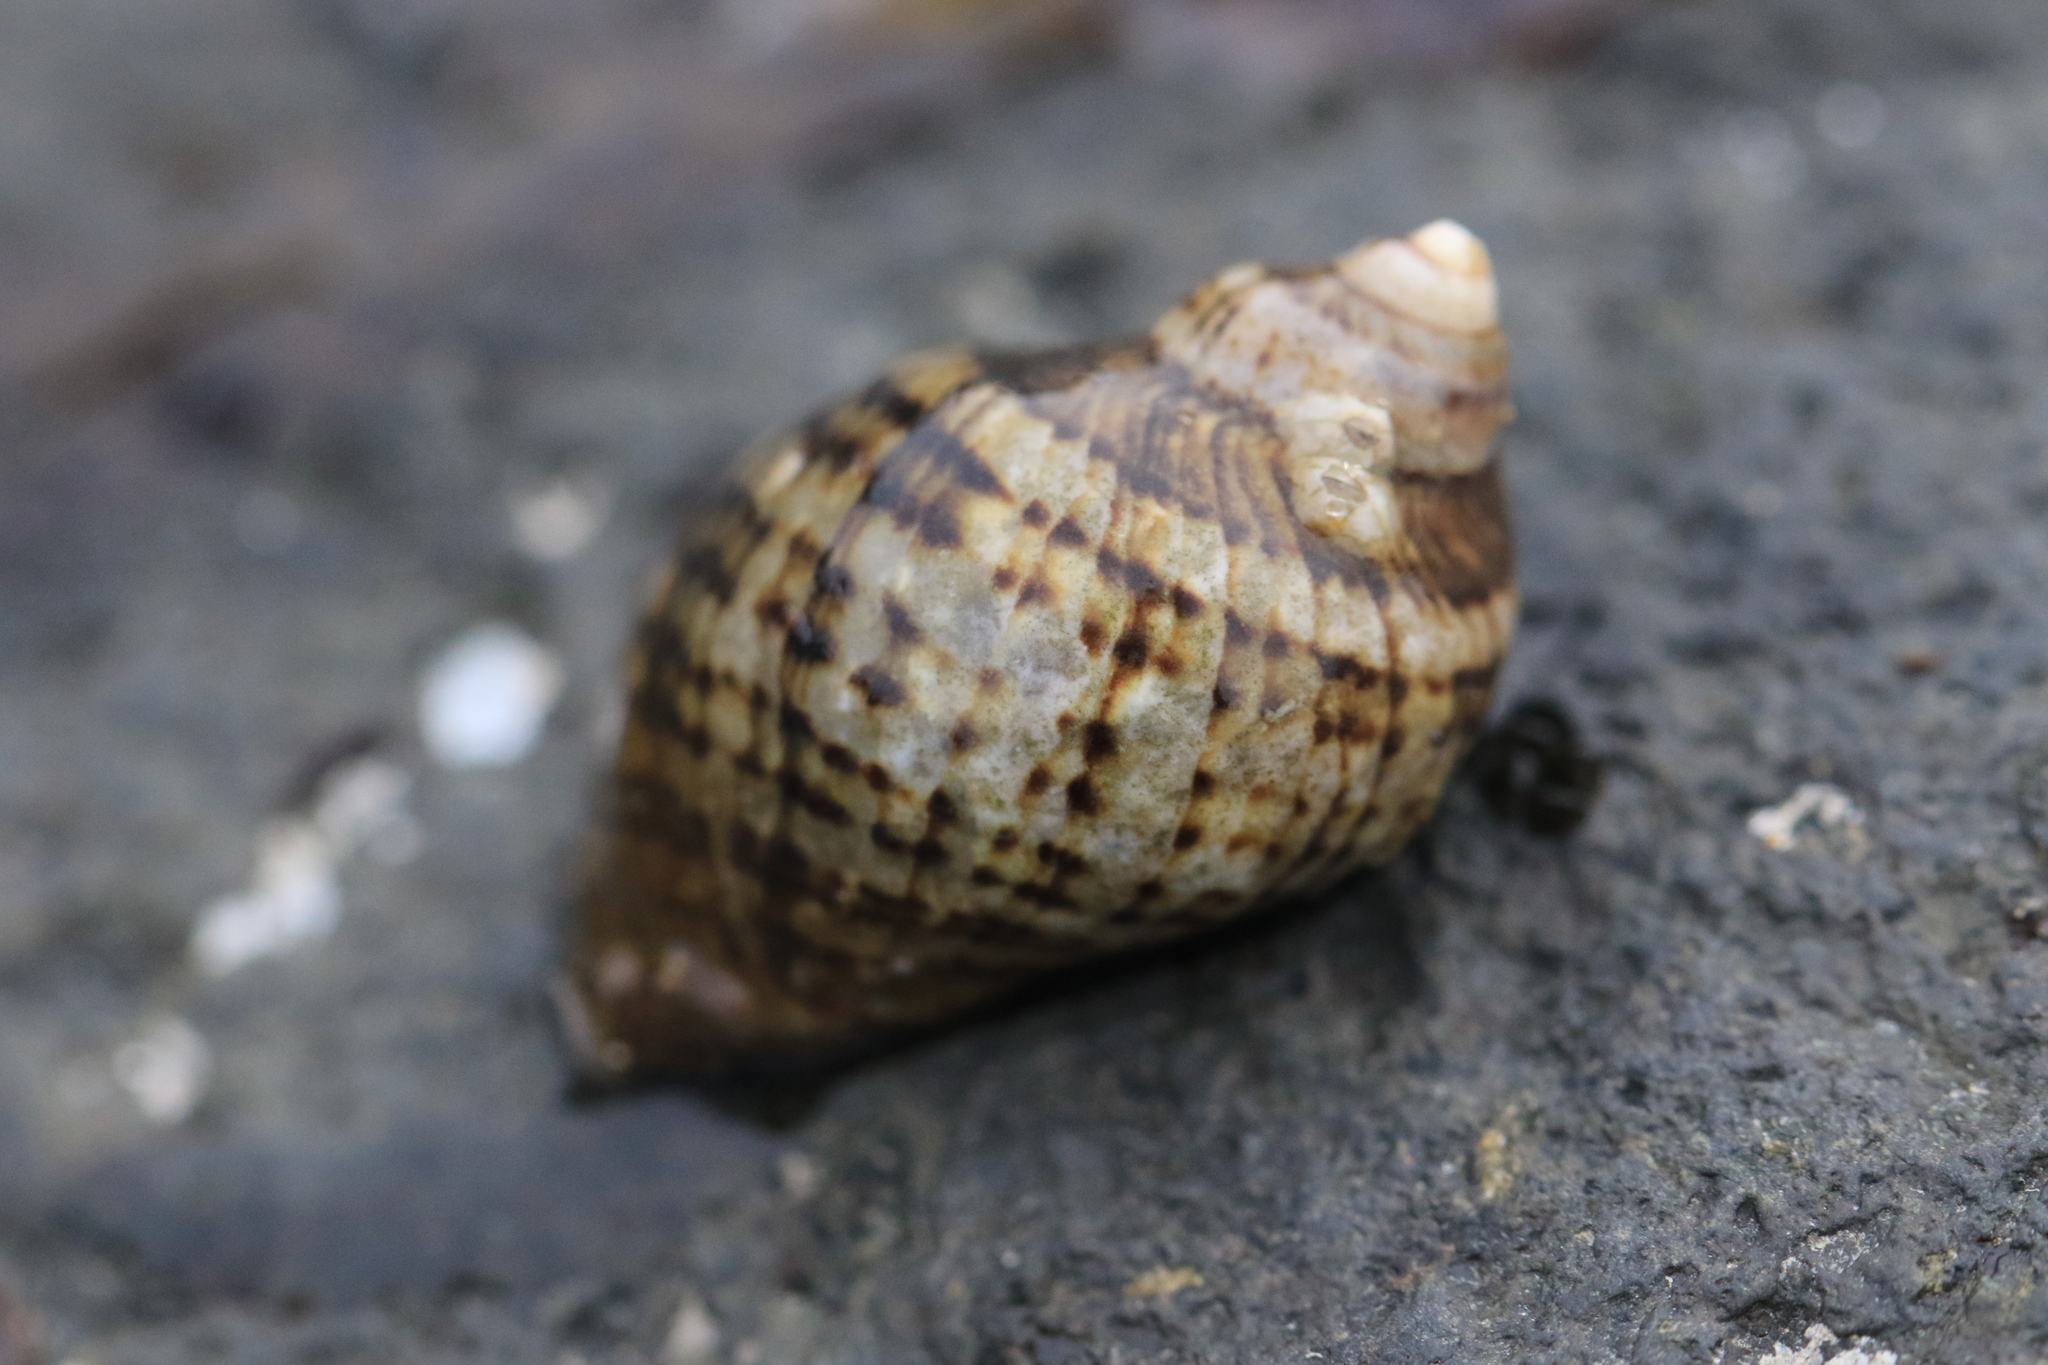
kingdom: Animalia
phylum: Mollusca
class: Gastropoda
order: Neogastropoda
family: Muricidae
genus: Nucella
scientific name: Nucella ostrina
